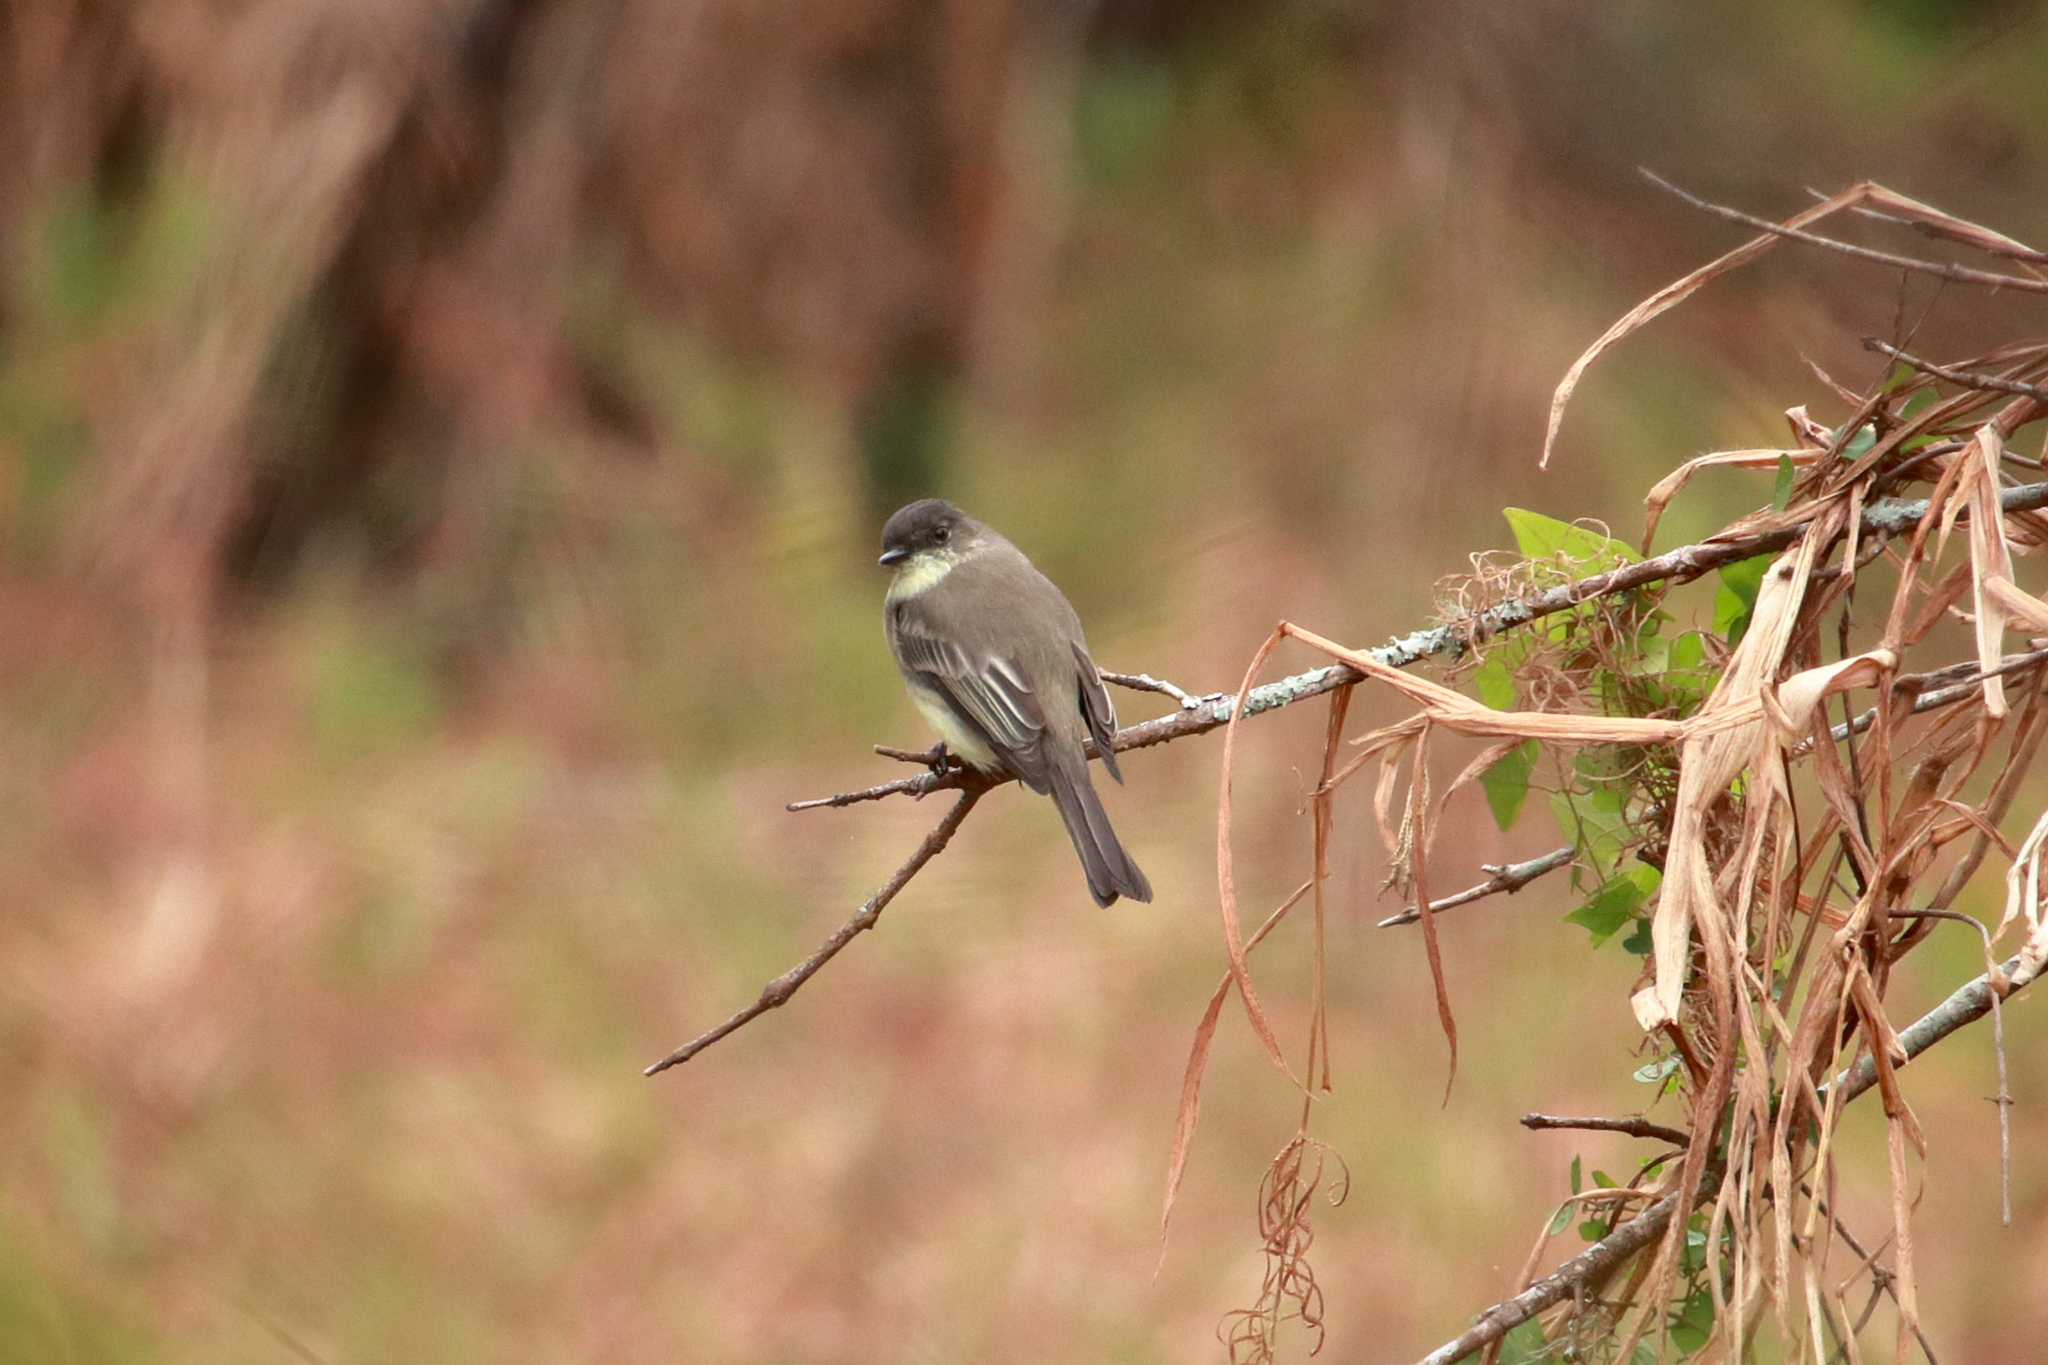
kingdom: Animalia
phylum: Chordata
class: Aves
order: Passeriformes
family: Tyrannidae
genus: Sayornis
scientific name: Sayornis phoebe
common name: Eastern phoebe
